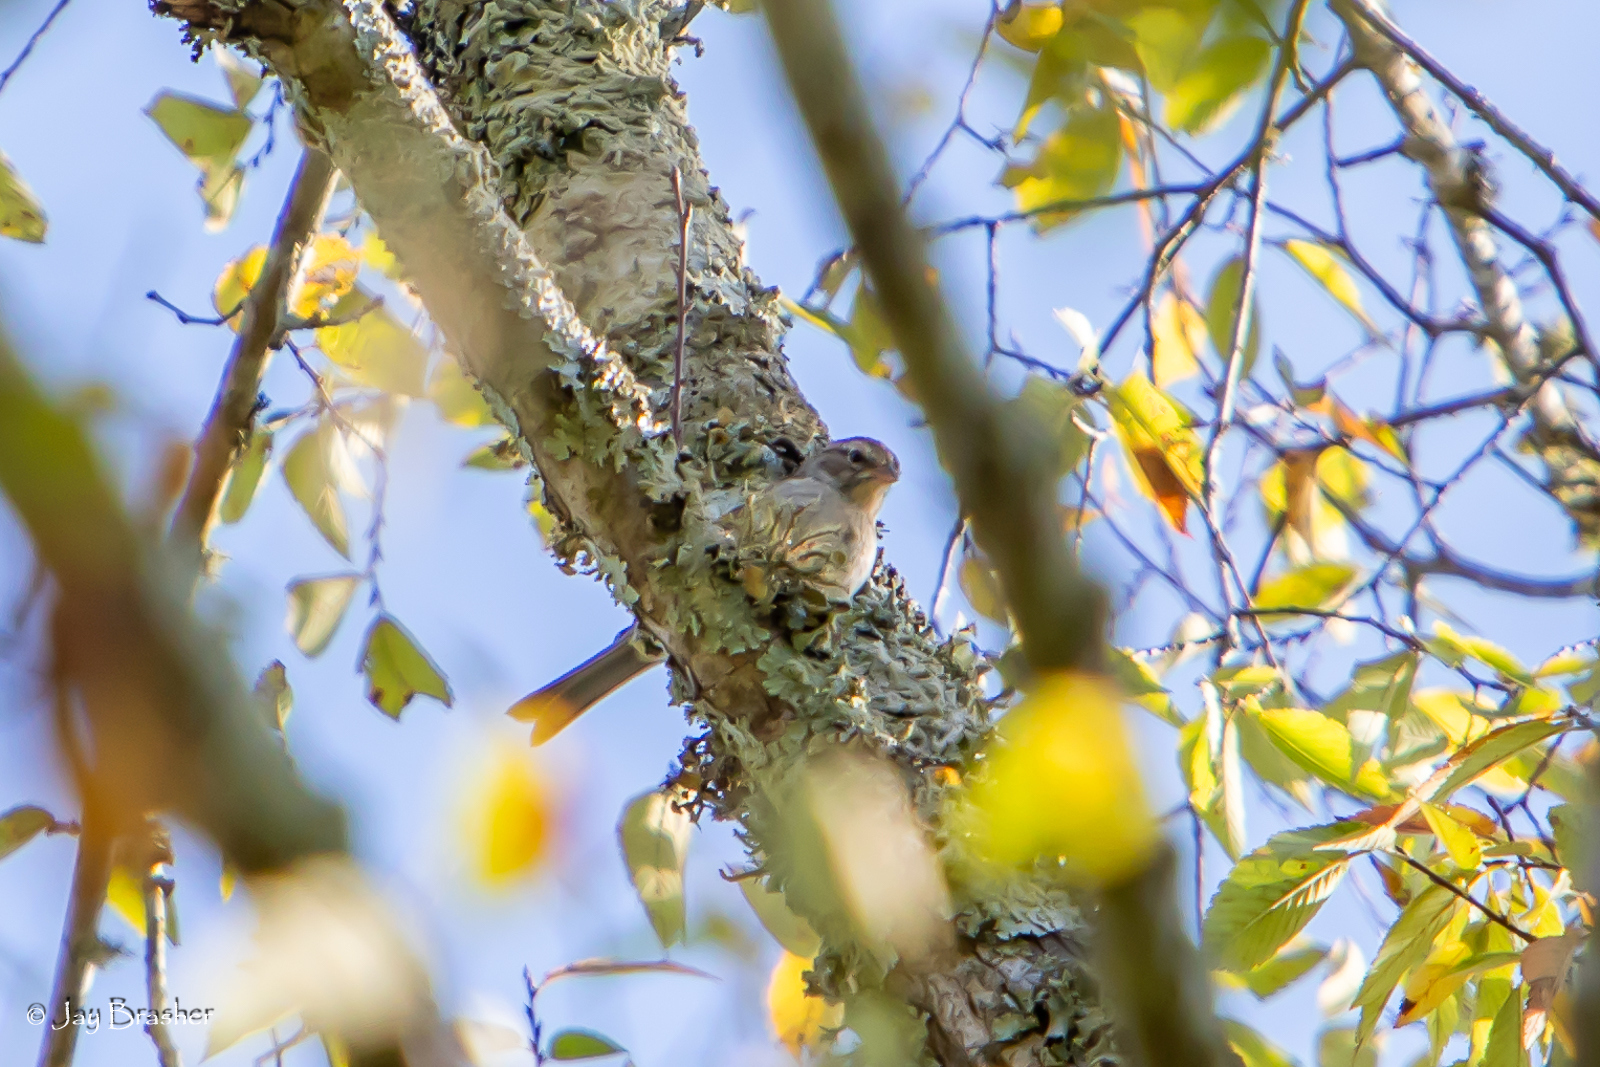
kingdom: Animalia
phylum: Chordata
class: Aves
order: Passeriformes
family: Passerellidae
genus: Spizella
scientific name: Spizella passerina
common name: Chipping sparrow
